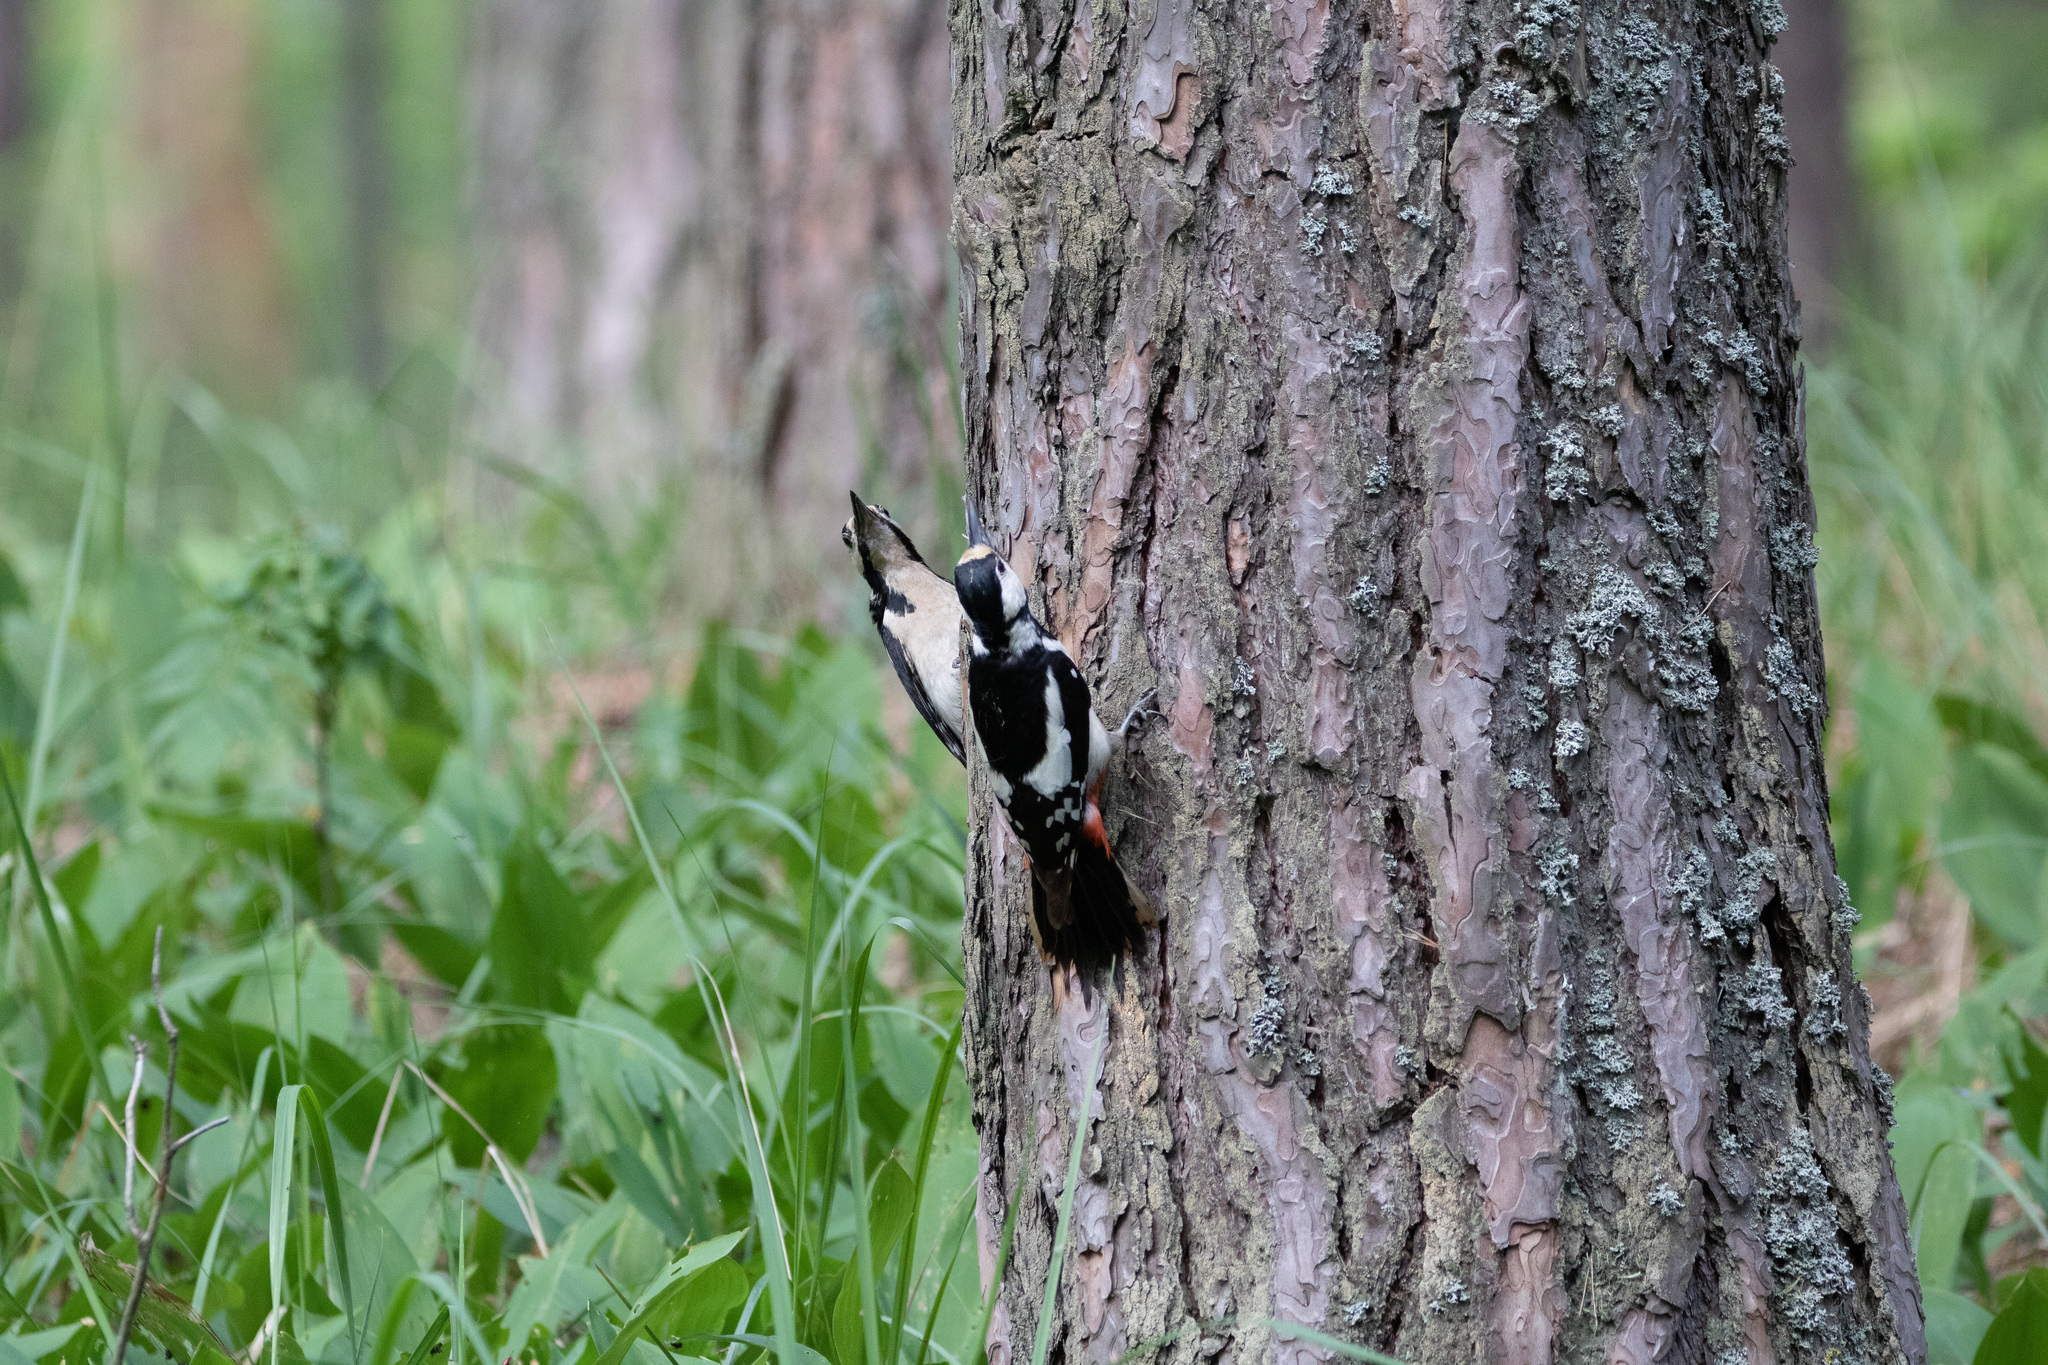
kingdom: Animalia
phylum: Chordata
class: Aves
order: Piciformes
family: Picidae
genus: Dendrocopos
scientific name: Dendrocopos major
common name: Great spotted woodpecker
